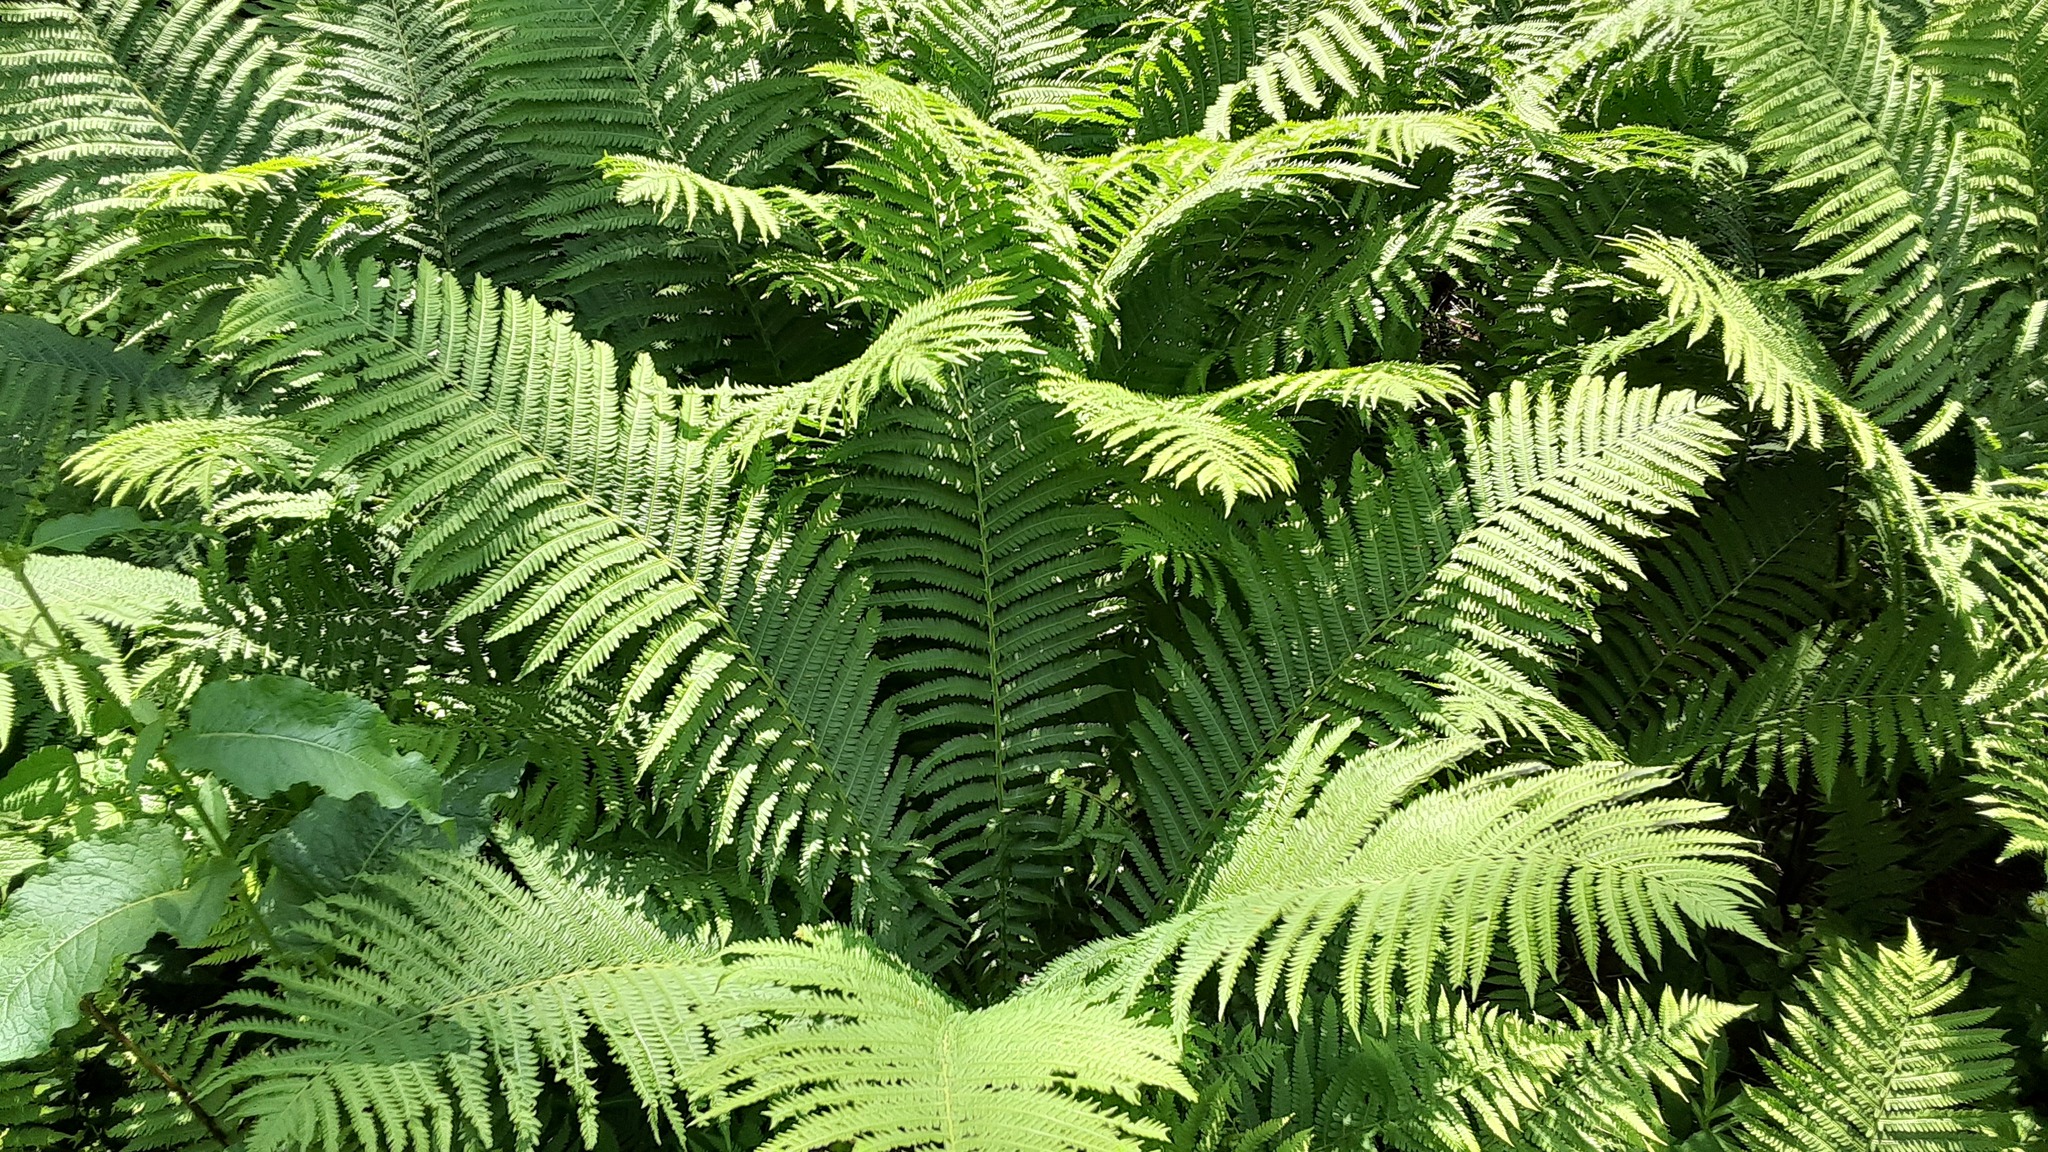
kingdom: Plantae
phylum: Tracheophyta
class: Polypodiopsida
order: Polypodiales
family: Onocleaceae
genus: Matteuccia
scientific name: Matteuccia struthiopteris
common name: Ostrich fern
